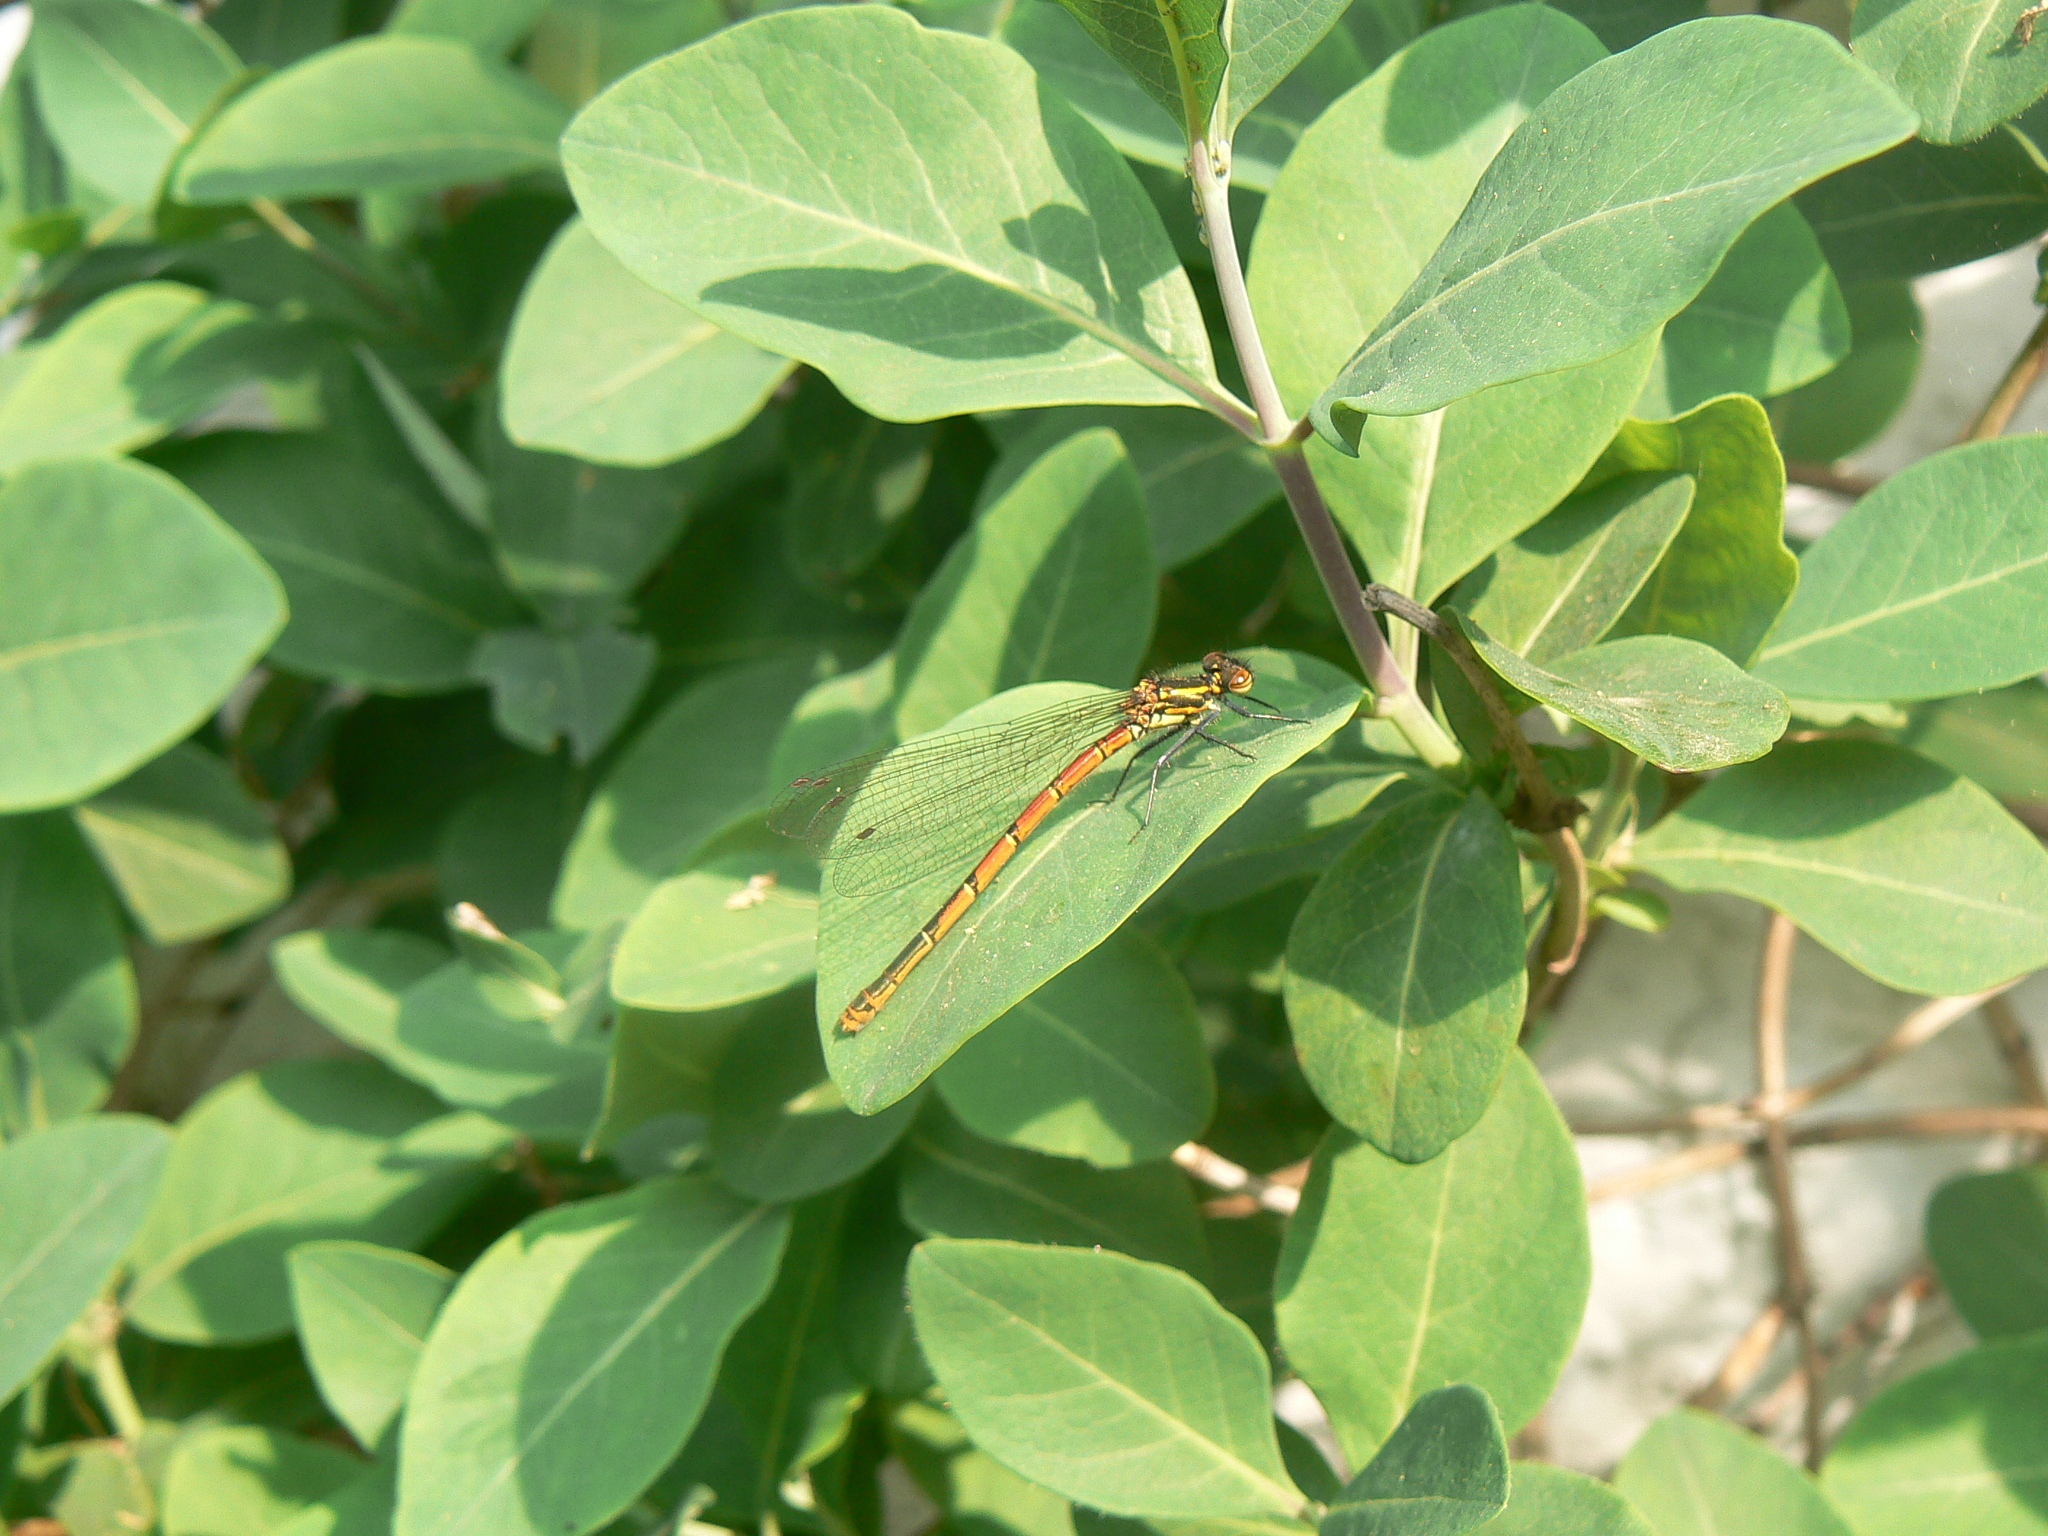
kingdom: Animalia
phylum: Arthropoda
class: Insecta
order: Odonata
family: Coenagrionidae
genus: Pyrrhosoma
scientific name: Pyrrhosoma nymphula
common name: Large red damsel
